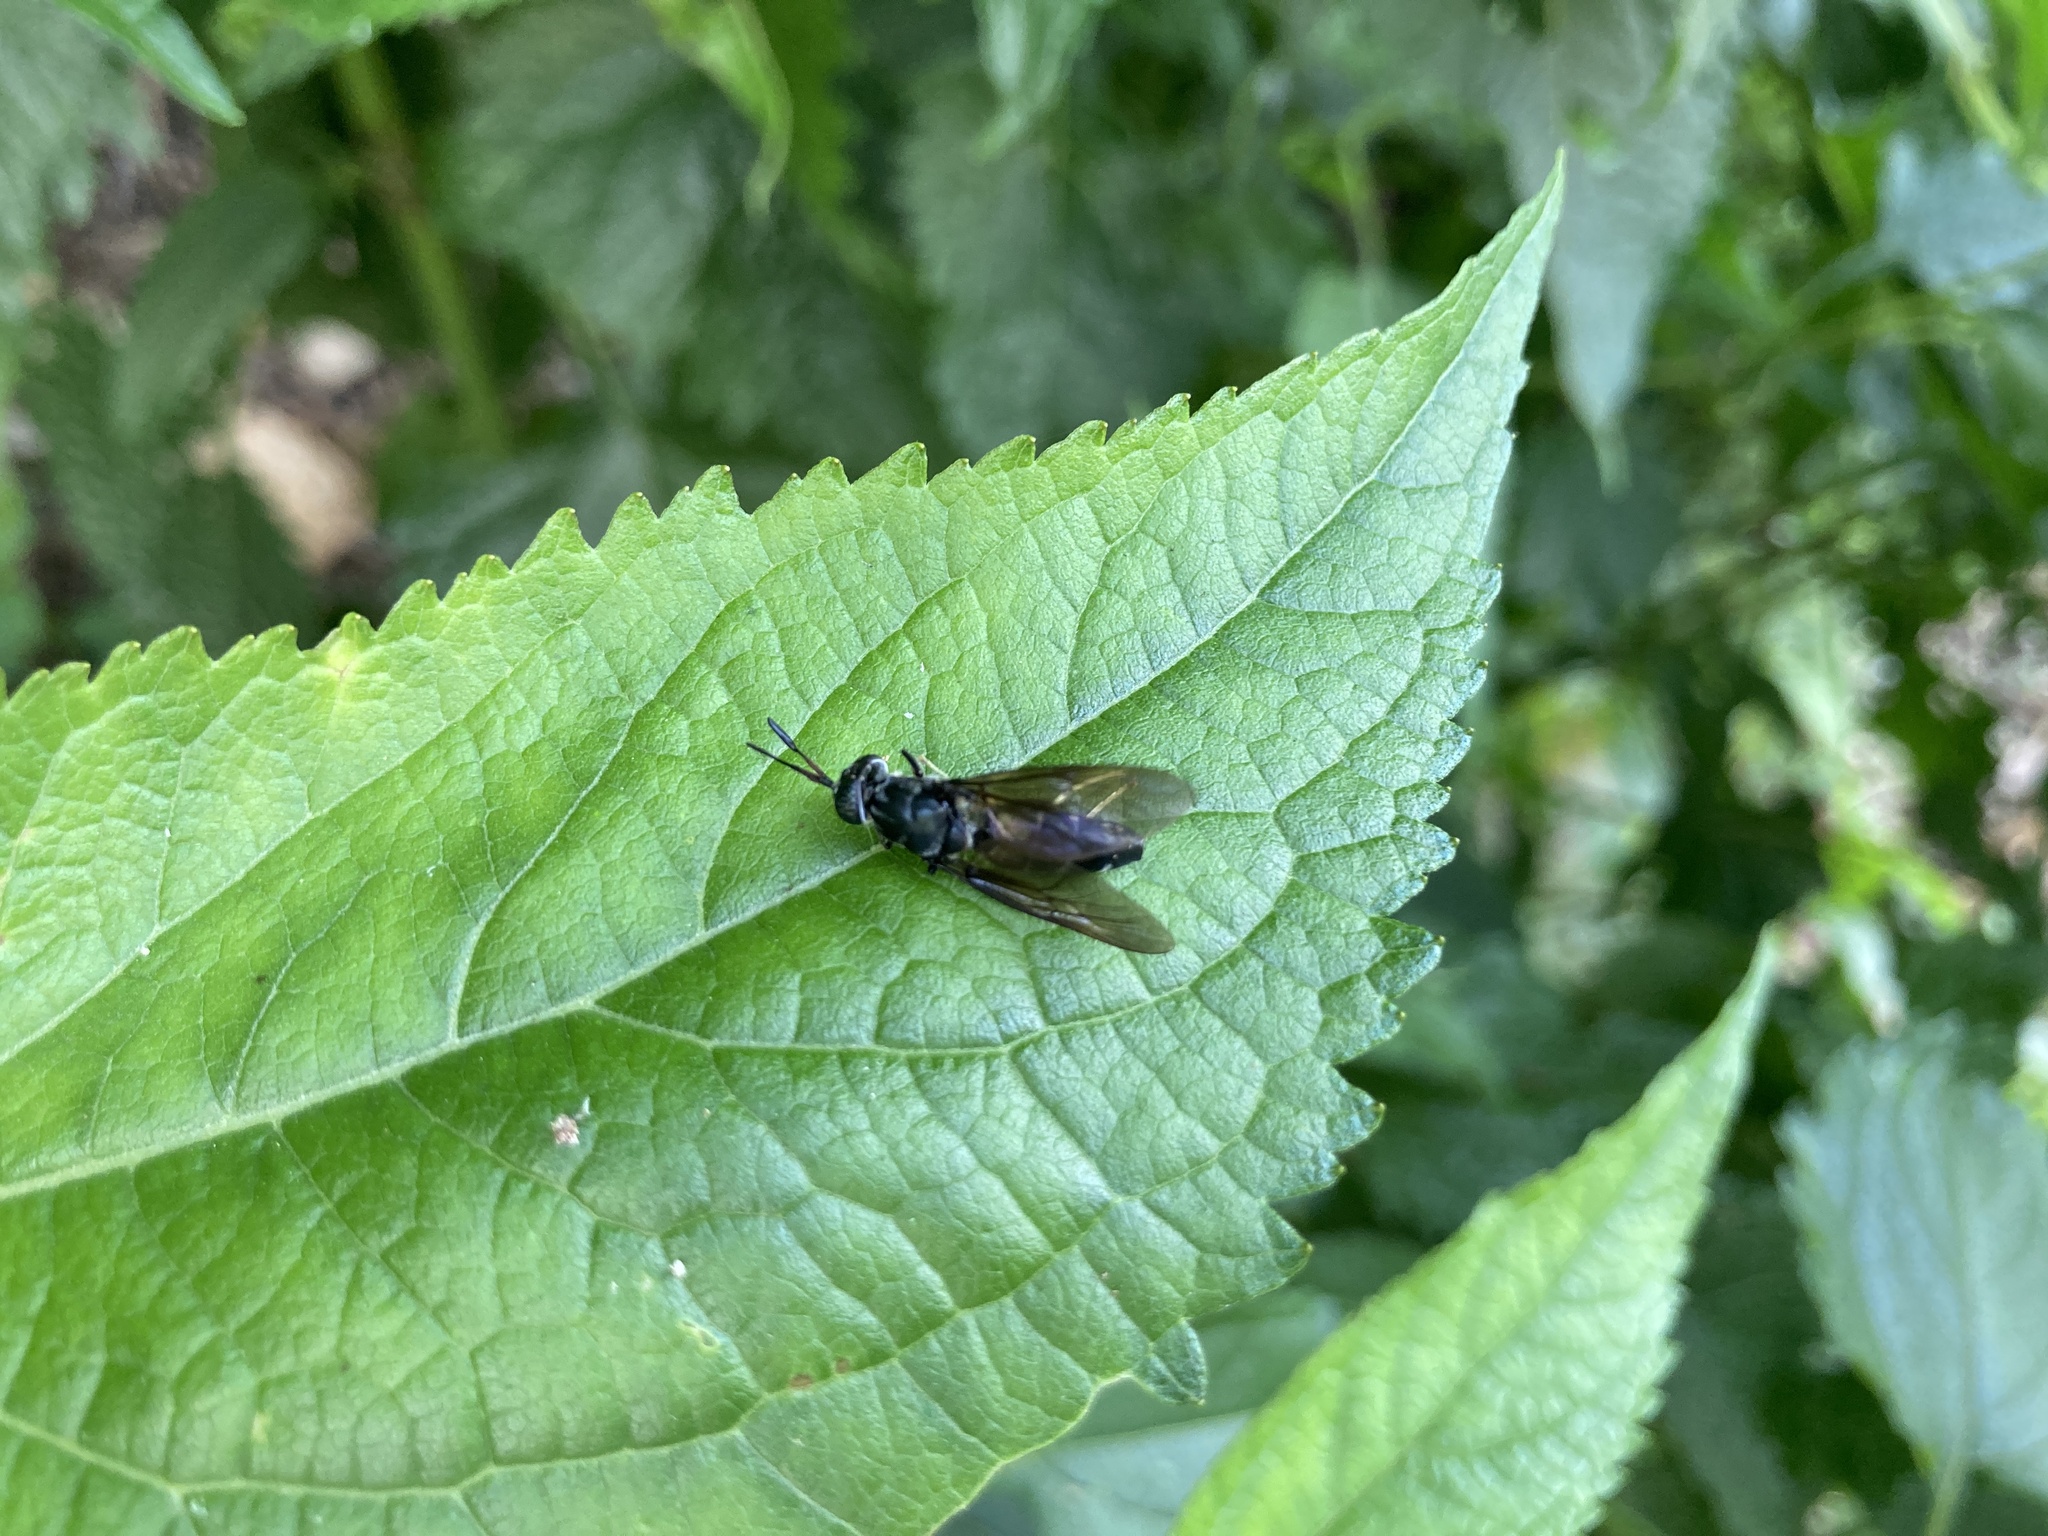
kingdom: Animalia
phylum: Arthropoda
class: Insecta
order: Diptera
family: Stratiomyidae
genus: Hermetia
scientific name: Hermetia illucens
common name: Black soldier fly
